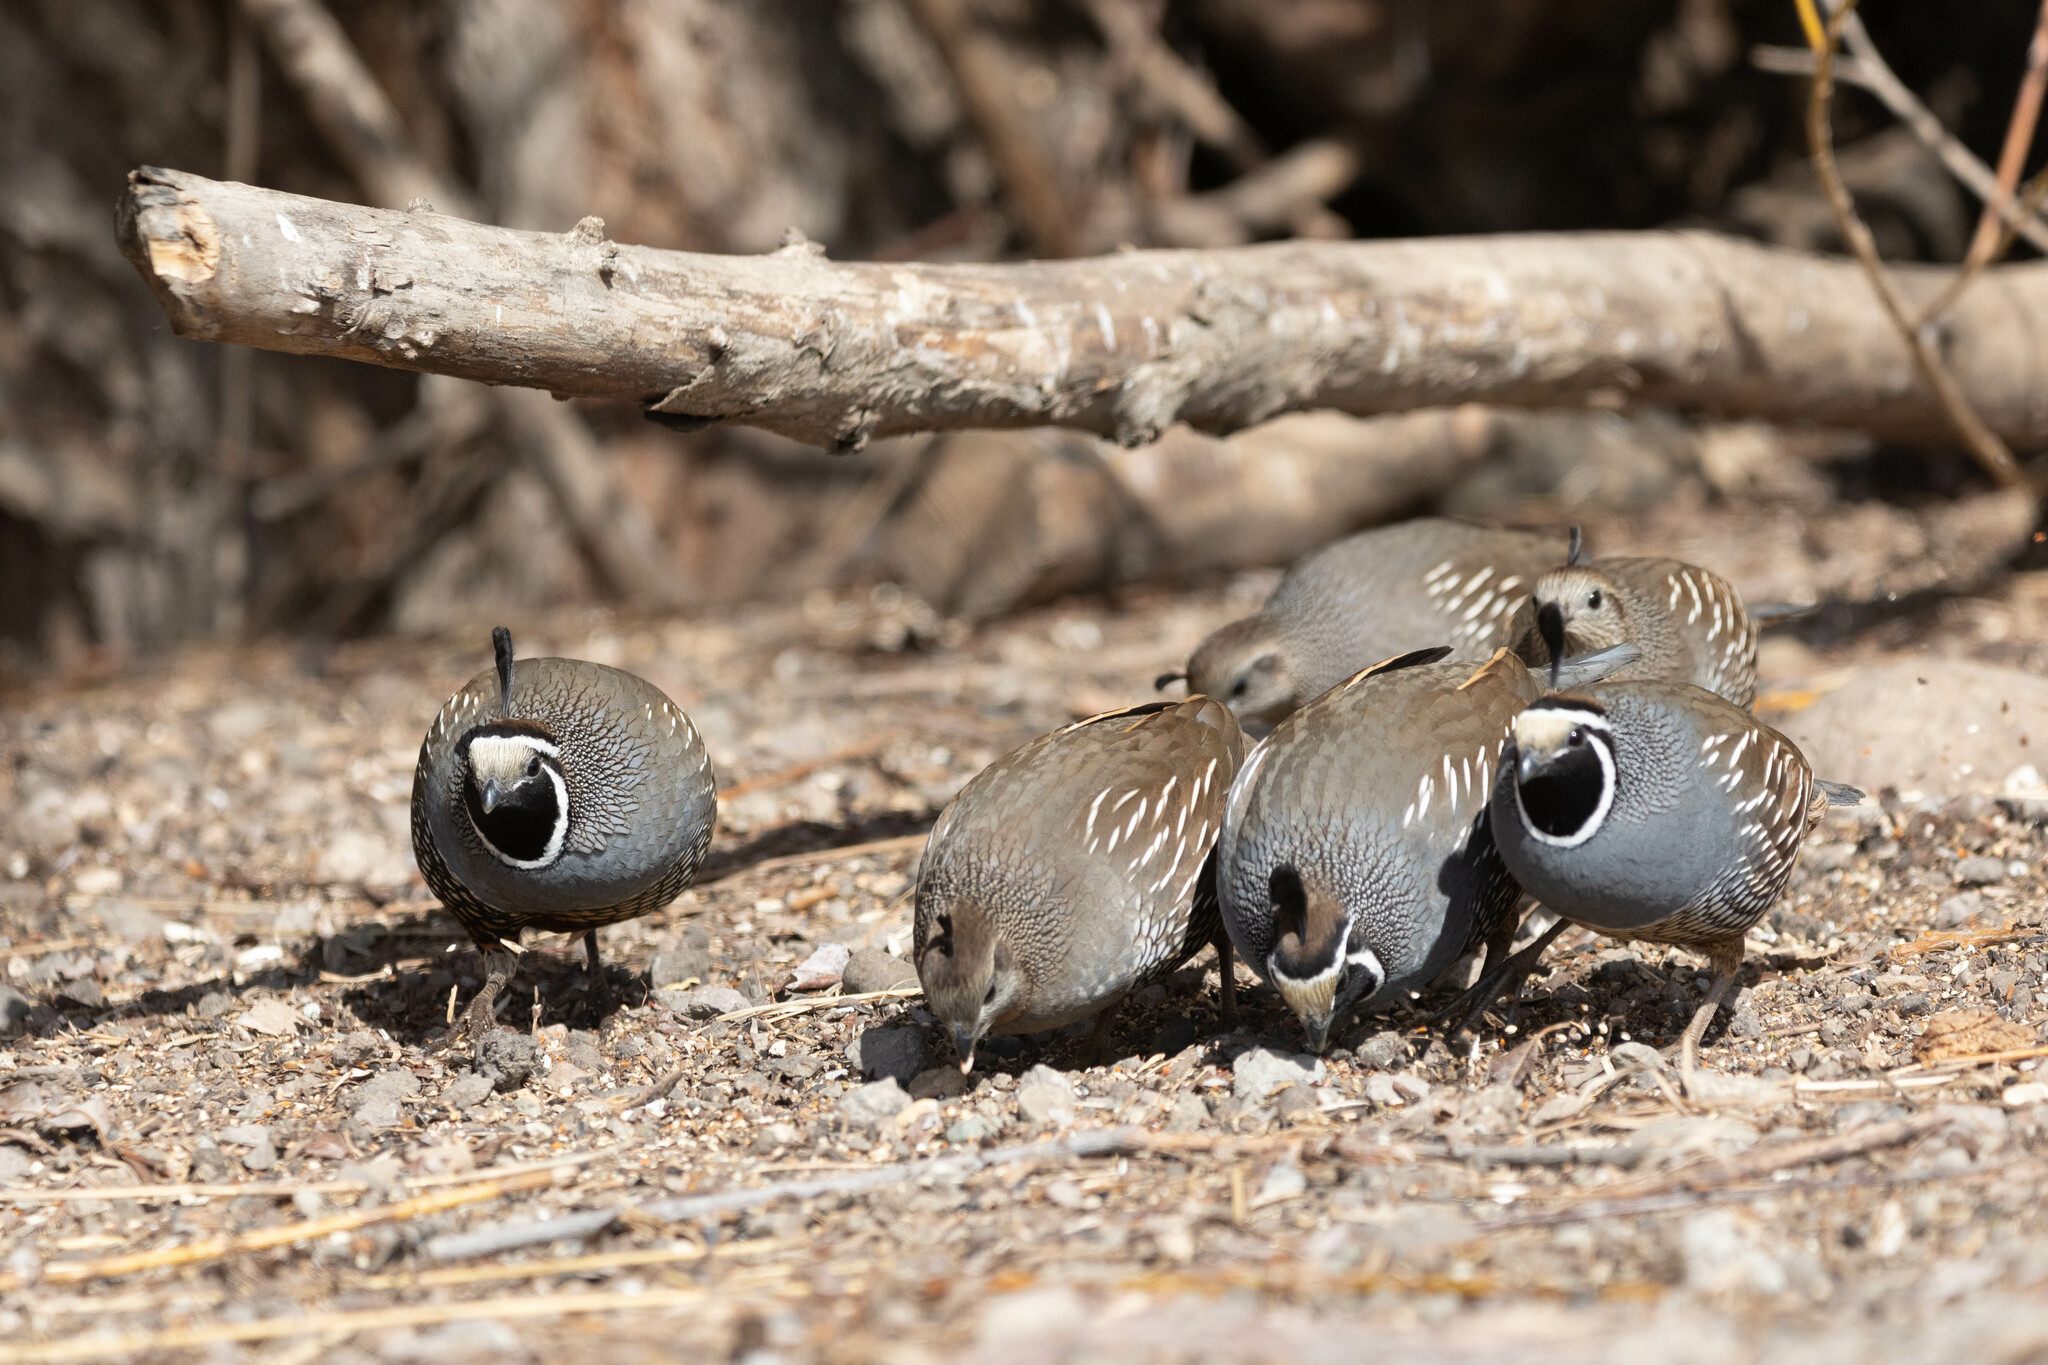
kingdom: Animalia
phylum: Chordata
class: Aves
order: Galliformes
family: Odontophoridae
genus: Callipepla
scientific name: Callipepla californica
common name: California quail
